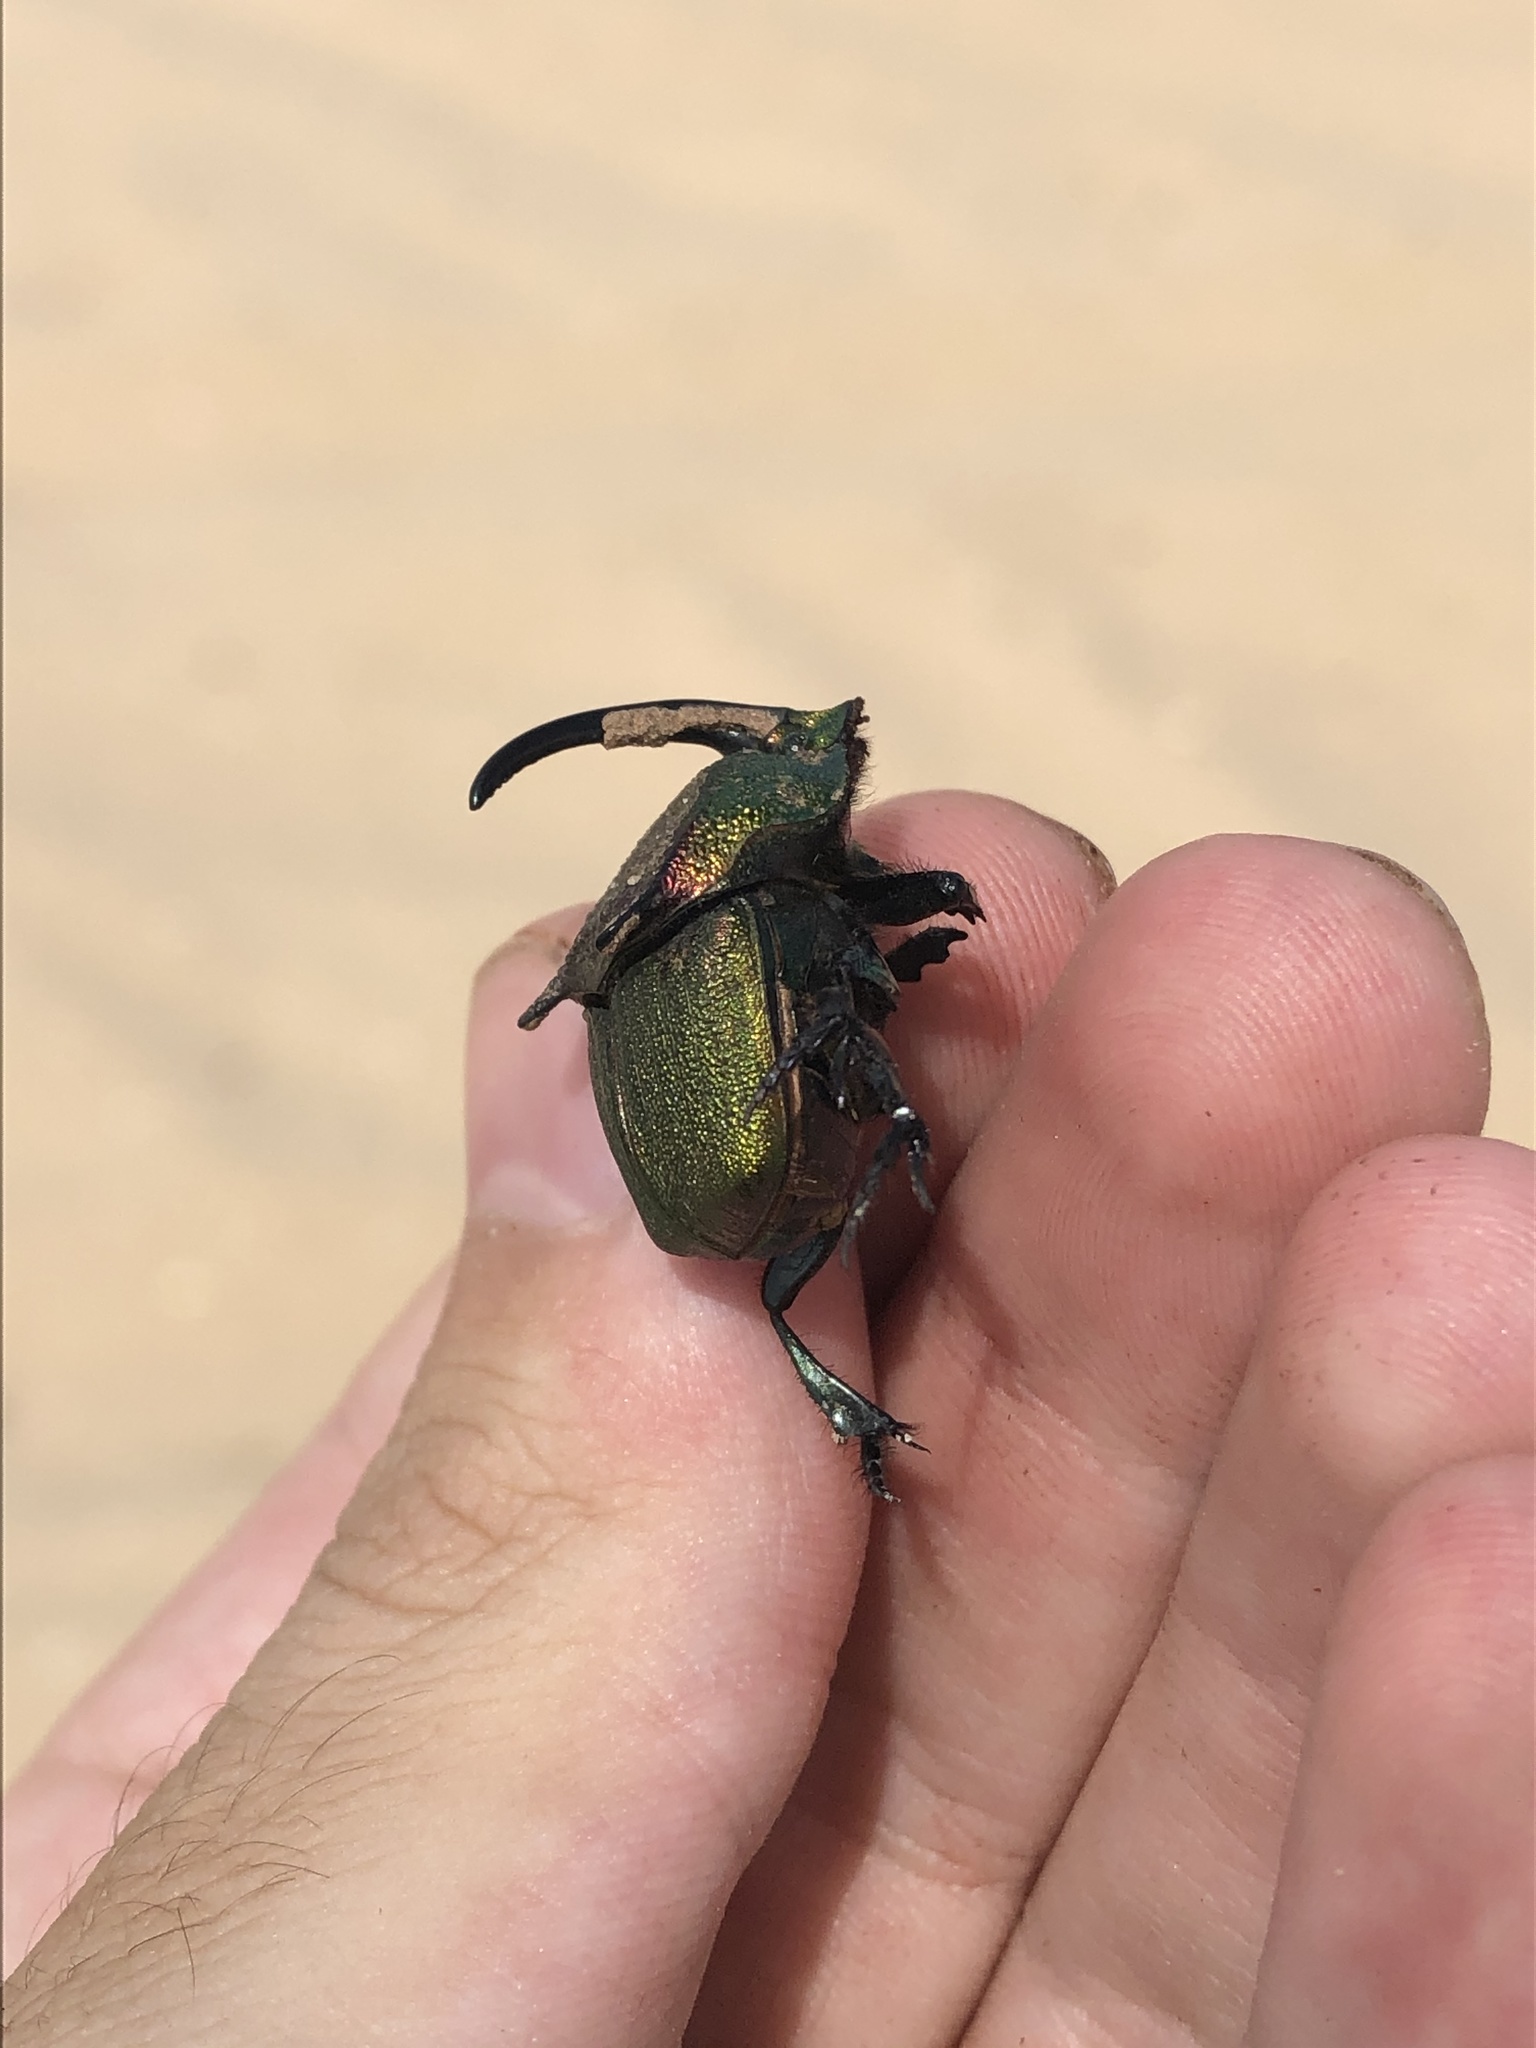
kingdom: Animalia
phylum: Arthropoda
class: Insecta
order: Coleoptera
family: Scarabaeidae
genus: Phanaeus
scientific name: Phanaeus difformis
